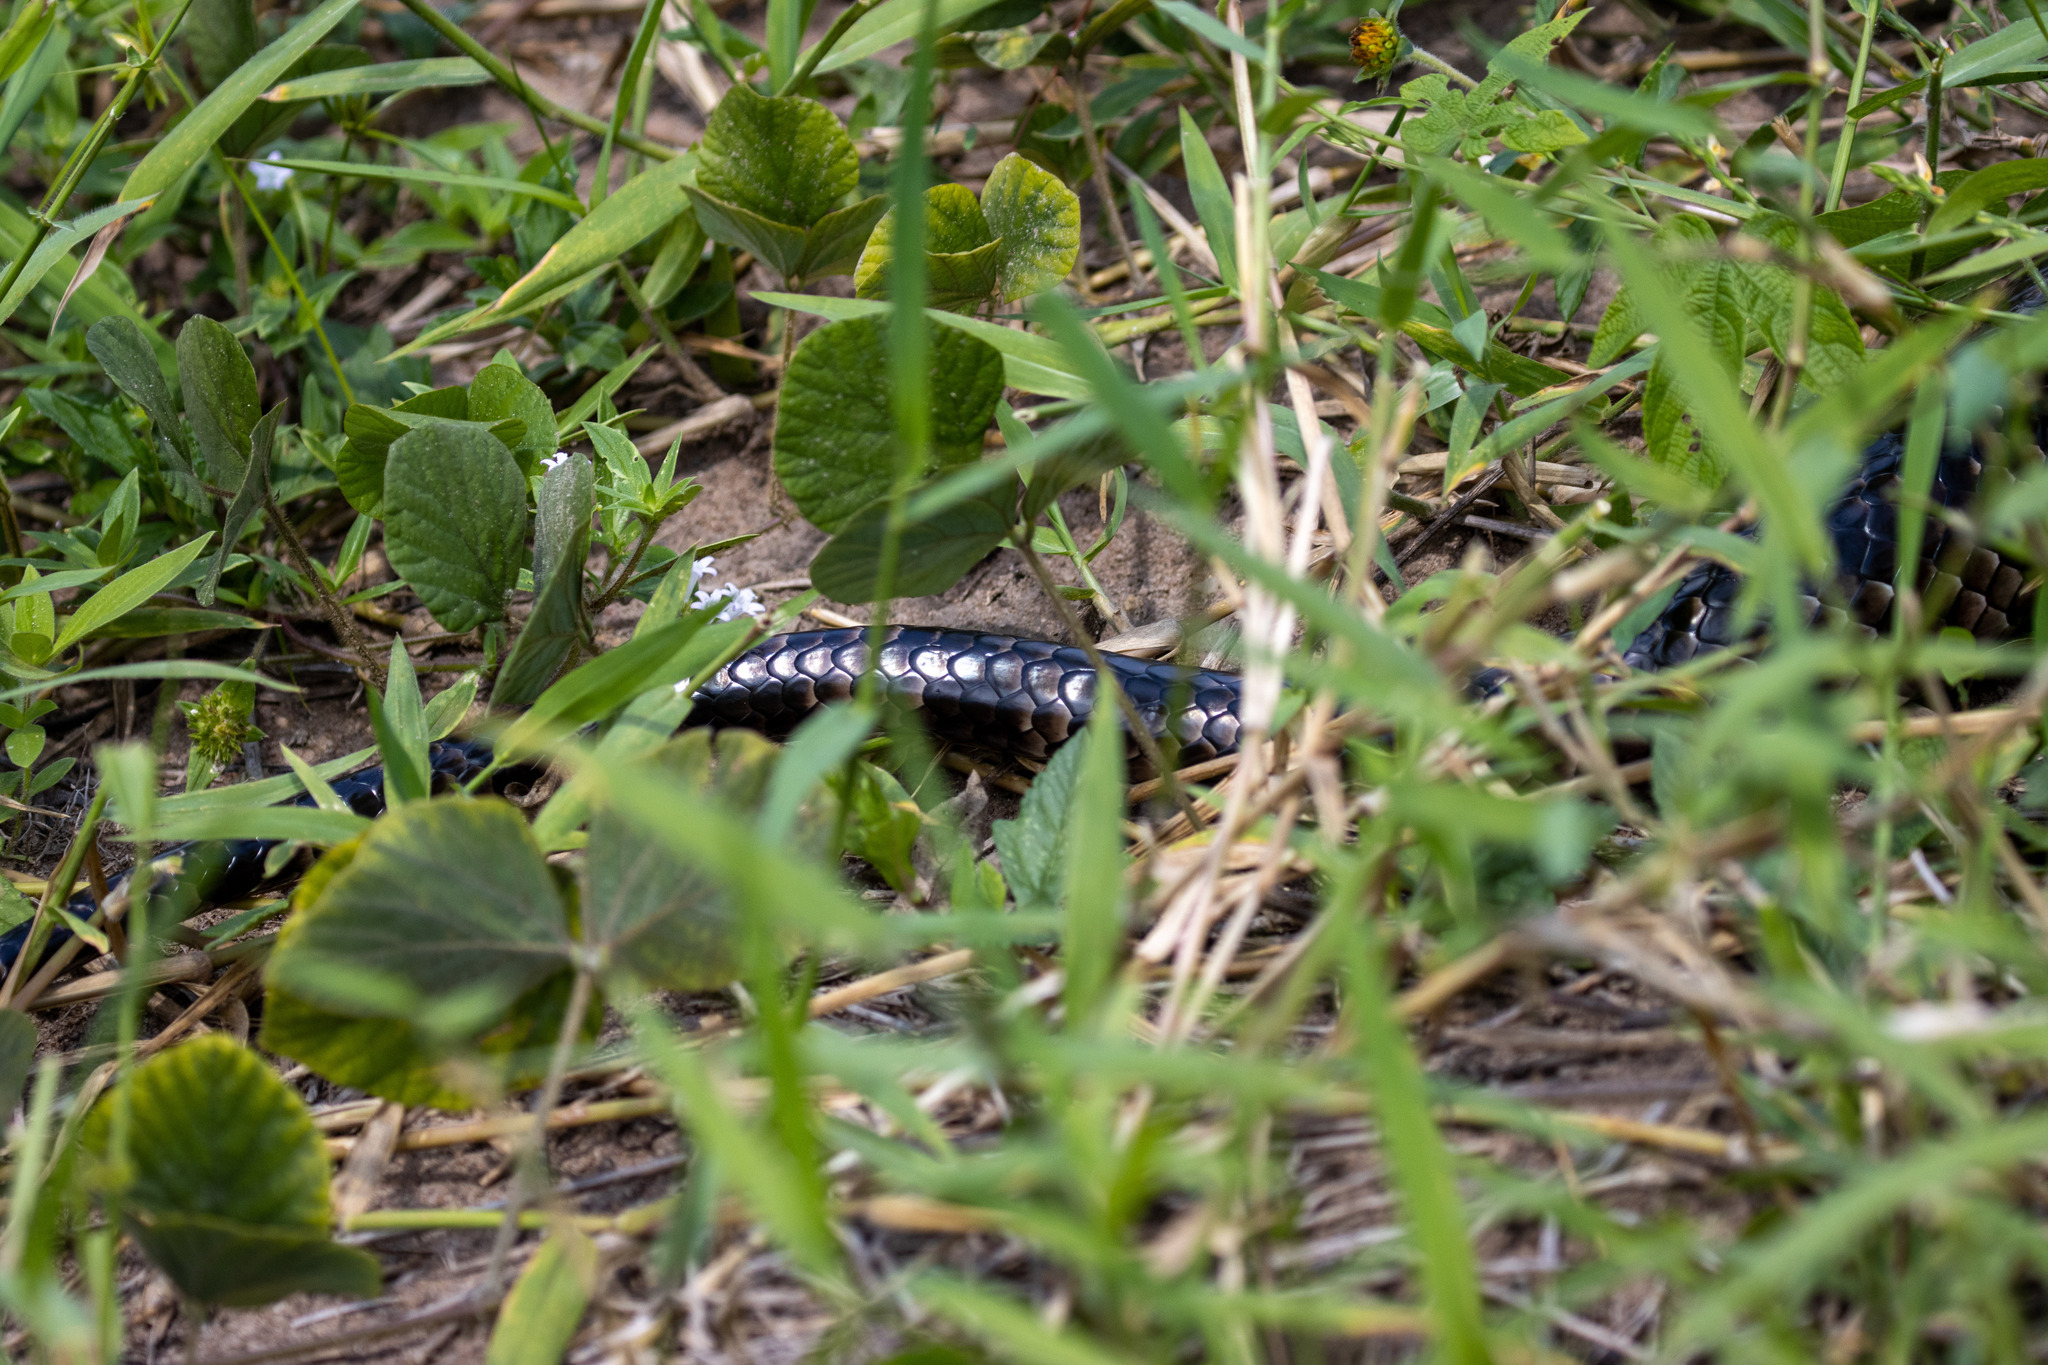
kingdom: Animalia
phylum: Chordata
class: Squamata
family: Colubridae
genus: Hydrodynastes
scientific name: Hydrodynastes gigas
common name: False water cobra
